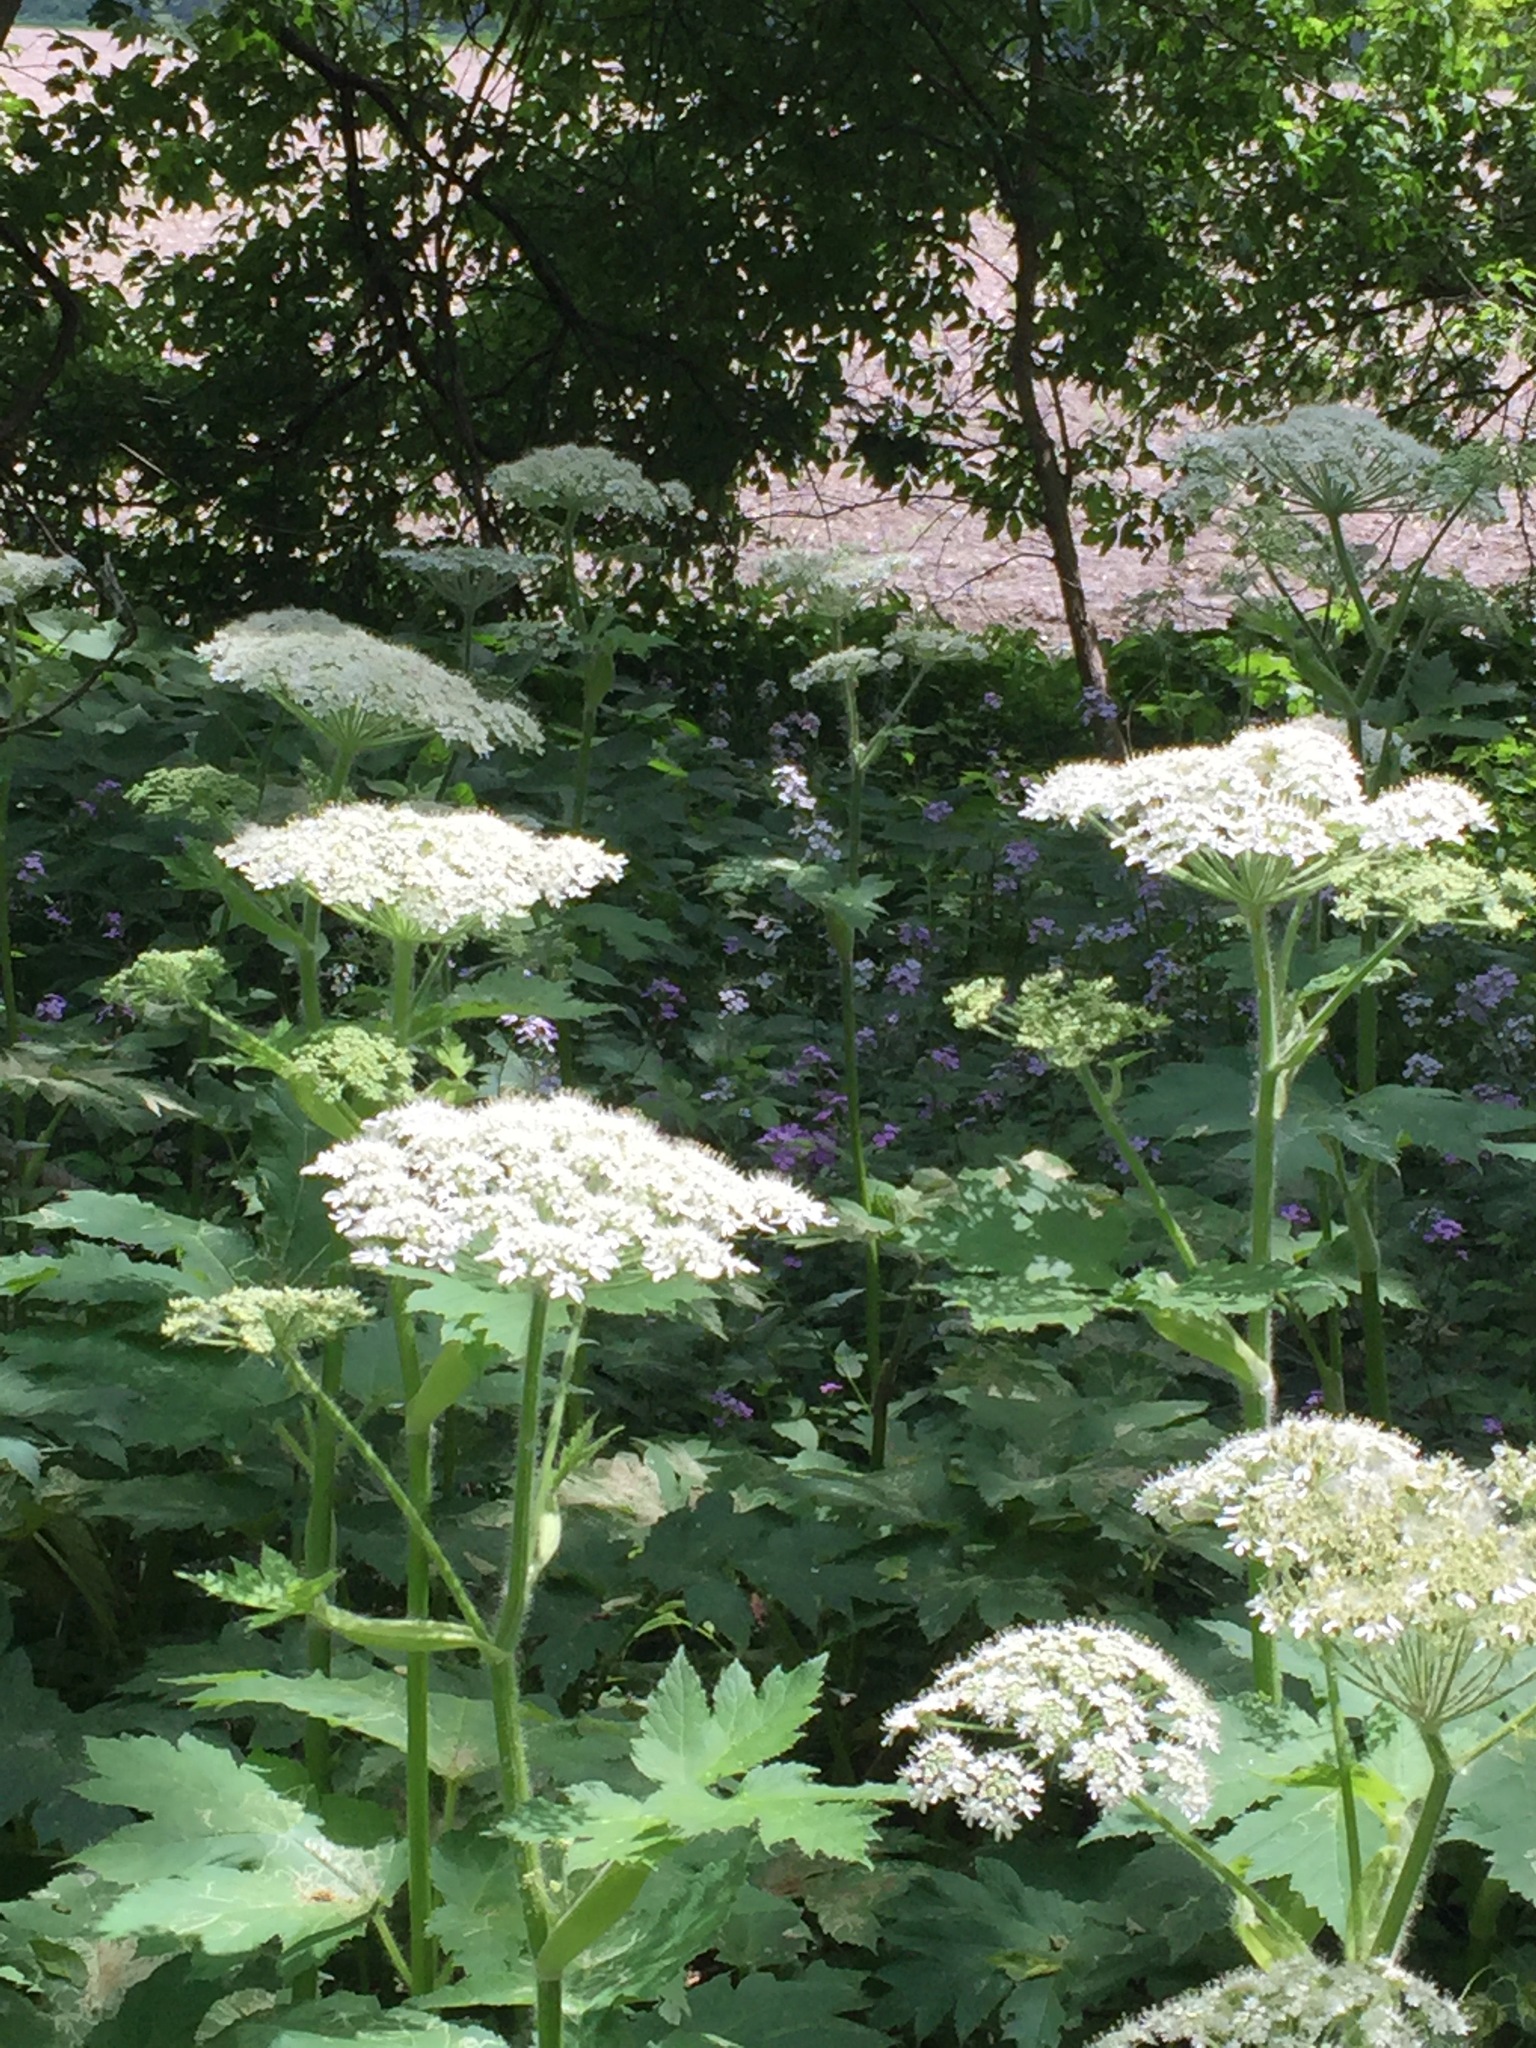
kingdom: Plantae
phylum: Tracheophyta
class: Magnoliopsida
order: Apiales
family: Apiaceae
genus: Heracleum
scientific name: Heracleum maximum
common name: American cow parsnip
